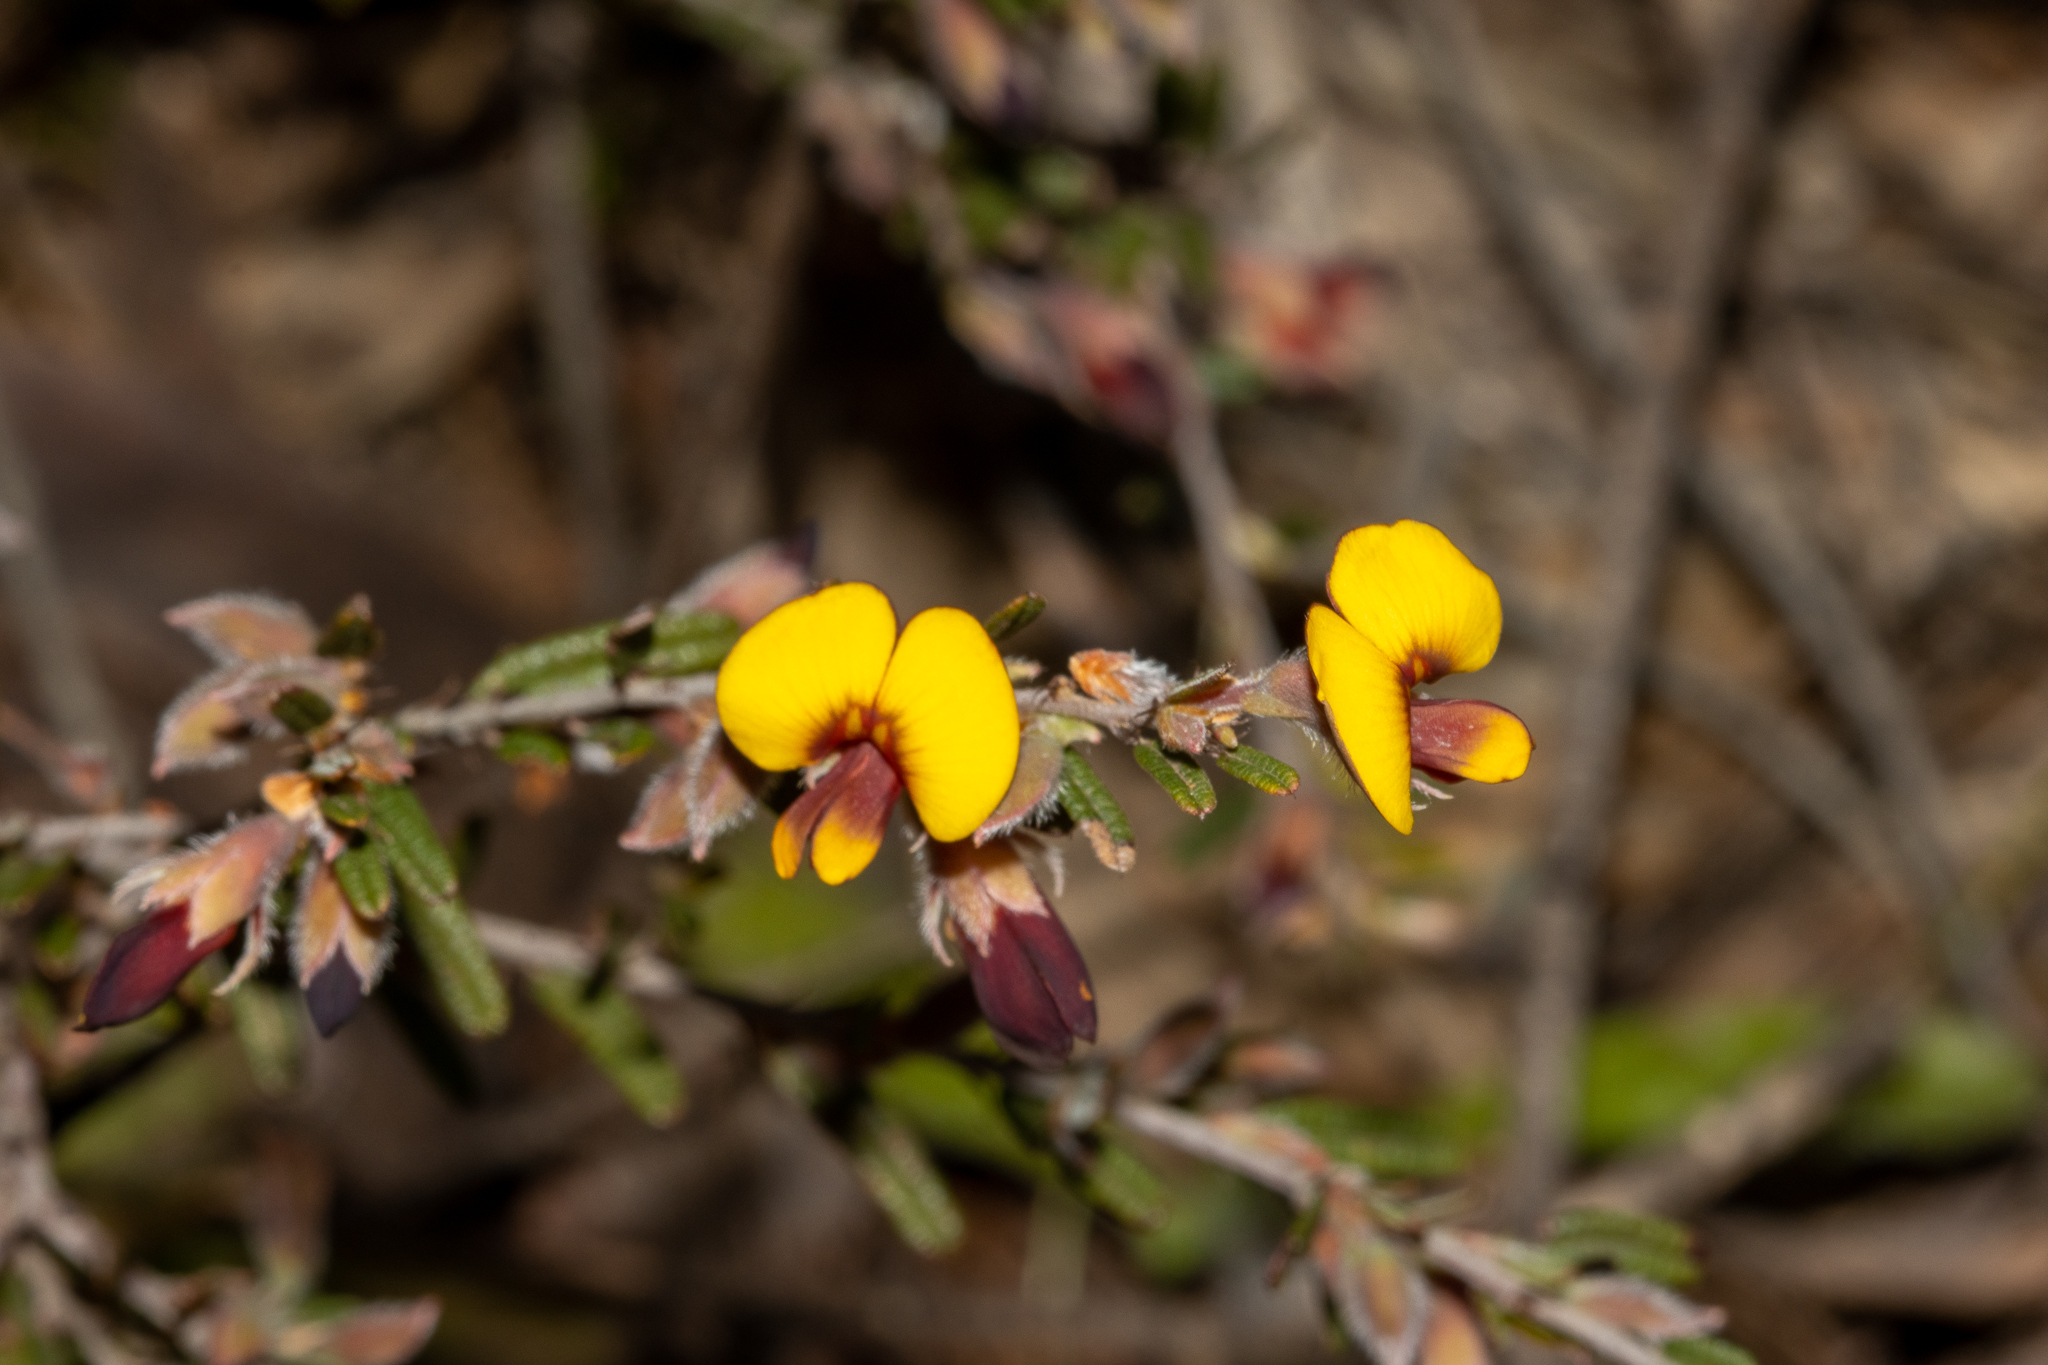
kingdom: Plantae
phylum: Tracheophyta
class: Magnoliopsida
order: Fabales
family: Fabaceae
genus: Bossiaea
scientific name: Bossiaea eriocarpa
